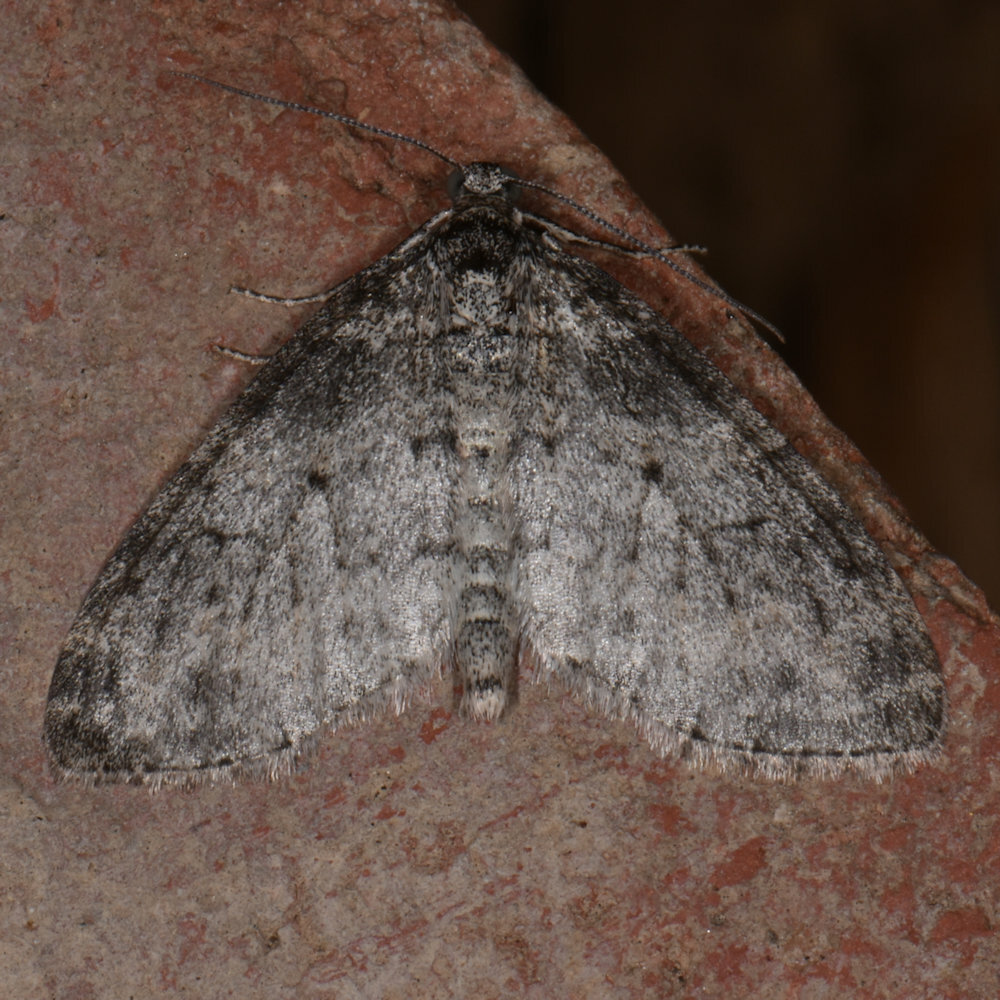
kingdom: Animalia
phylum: Arthropoda
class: Insecta
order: Lepidoptera
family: Geometridae
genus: Lobophora
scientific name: Lobophora nivigerata
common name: Powdered bigwing
